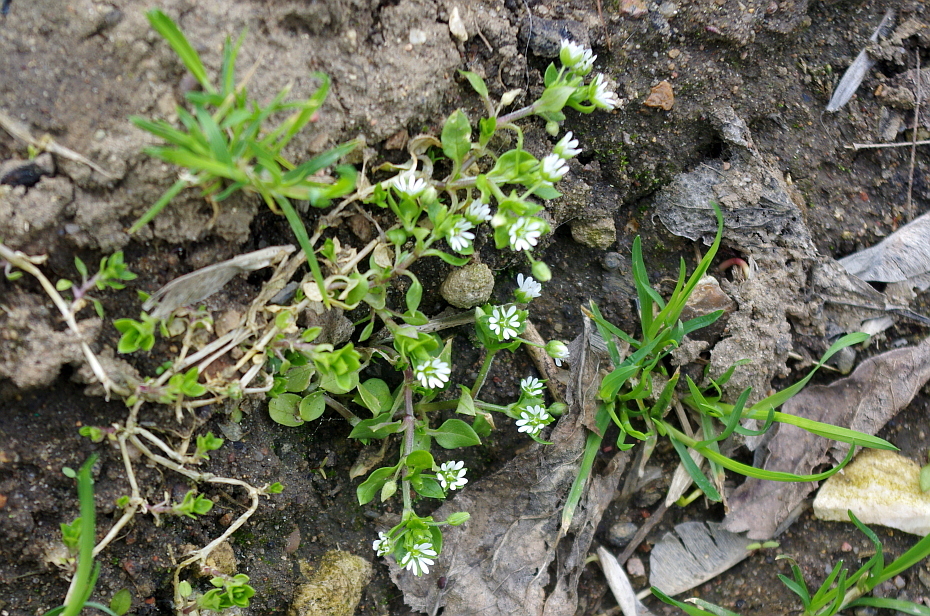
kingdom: Plantae
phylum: Tracheophyta
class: Magnoliopsida
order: Caryophyllales
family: Caryophyllaceae
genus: Stellaria
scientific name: Stellaria media
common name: Common chickweed
